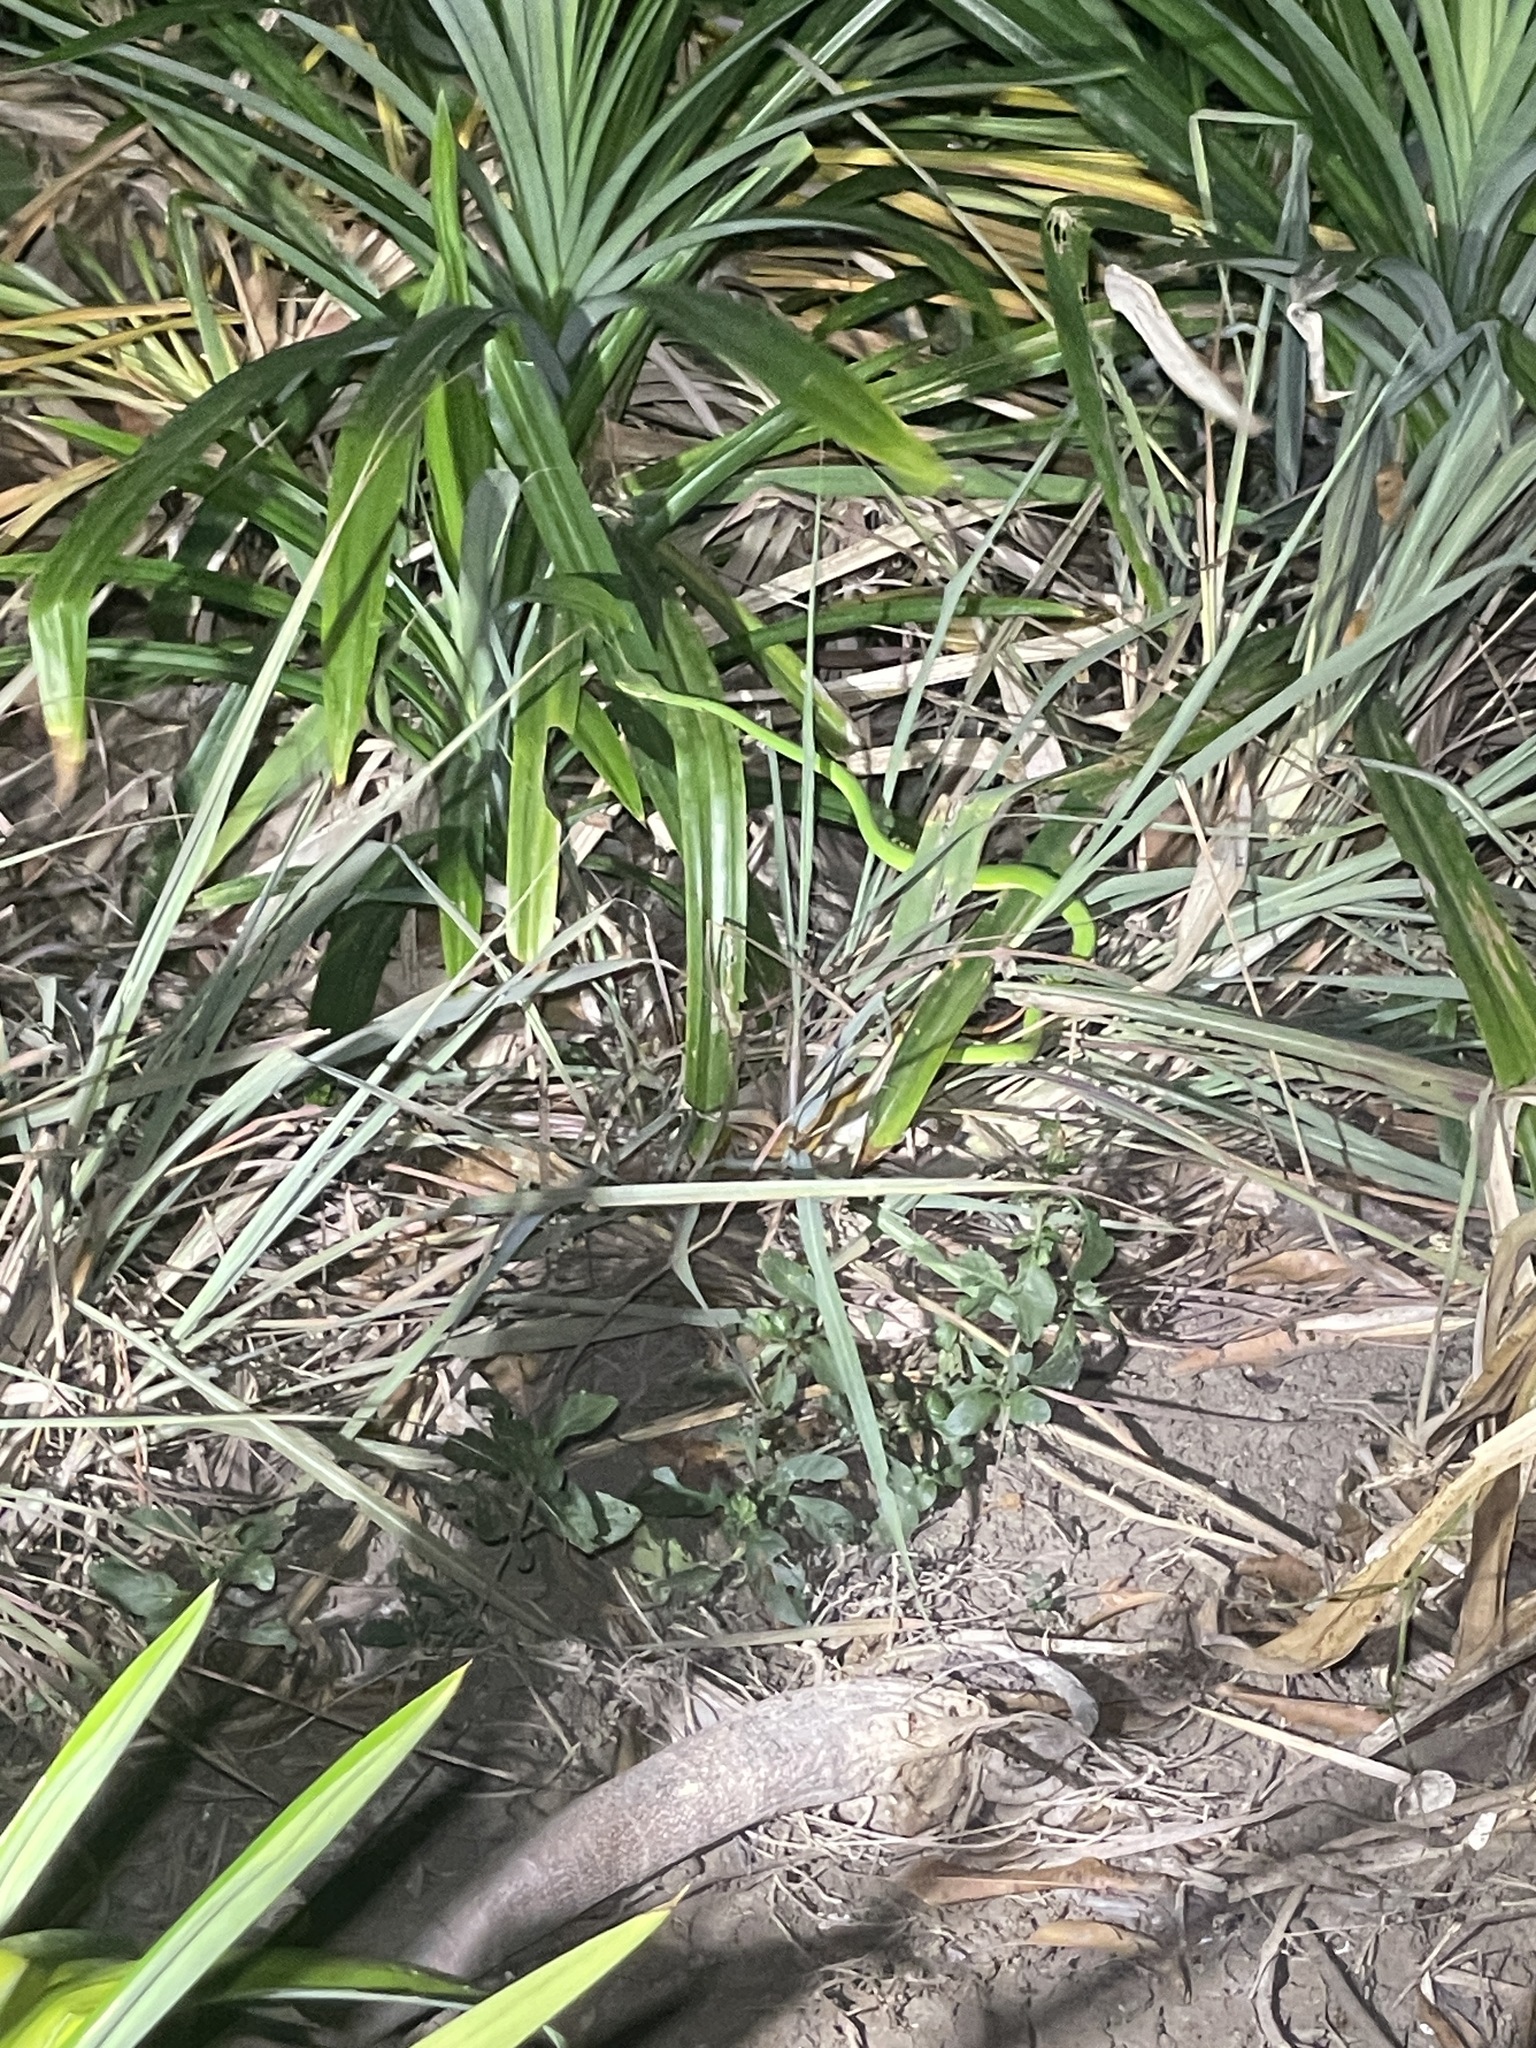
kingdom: Animalia
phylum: Chordata
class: Squamata
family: Viperidae
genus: Trimeresurus
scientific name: Trimeresurus albolabris
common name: White-lipped pitviper
